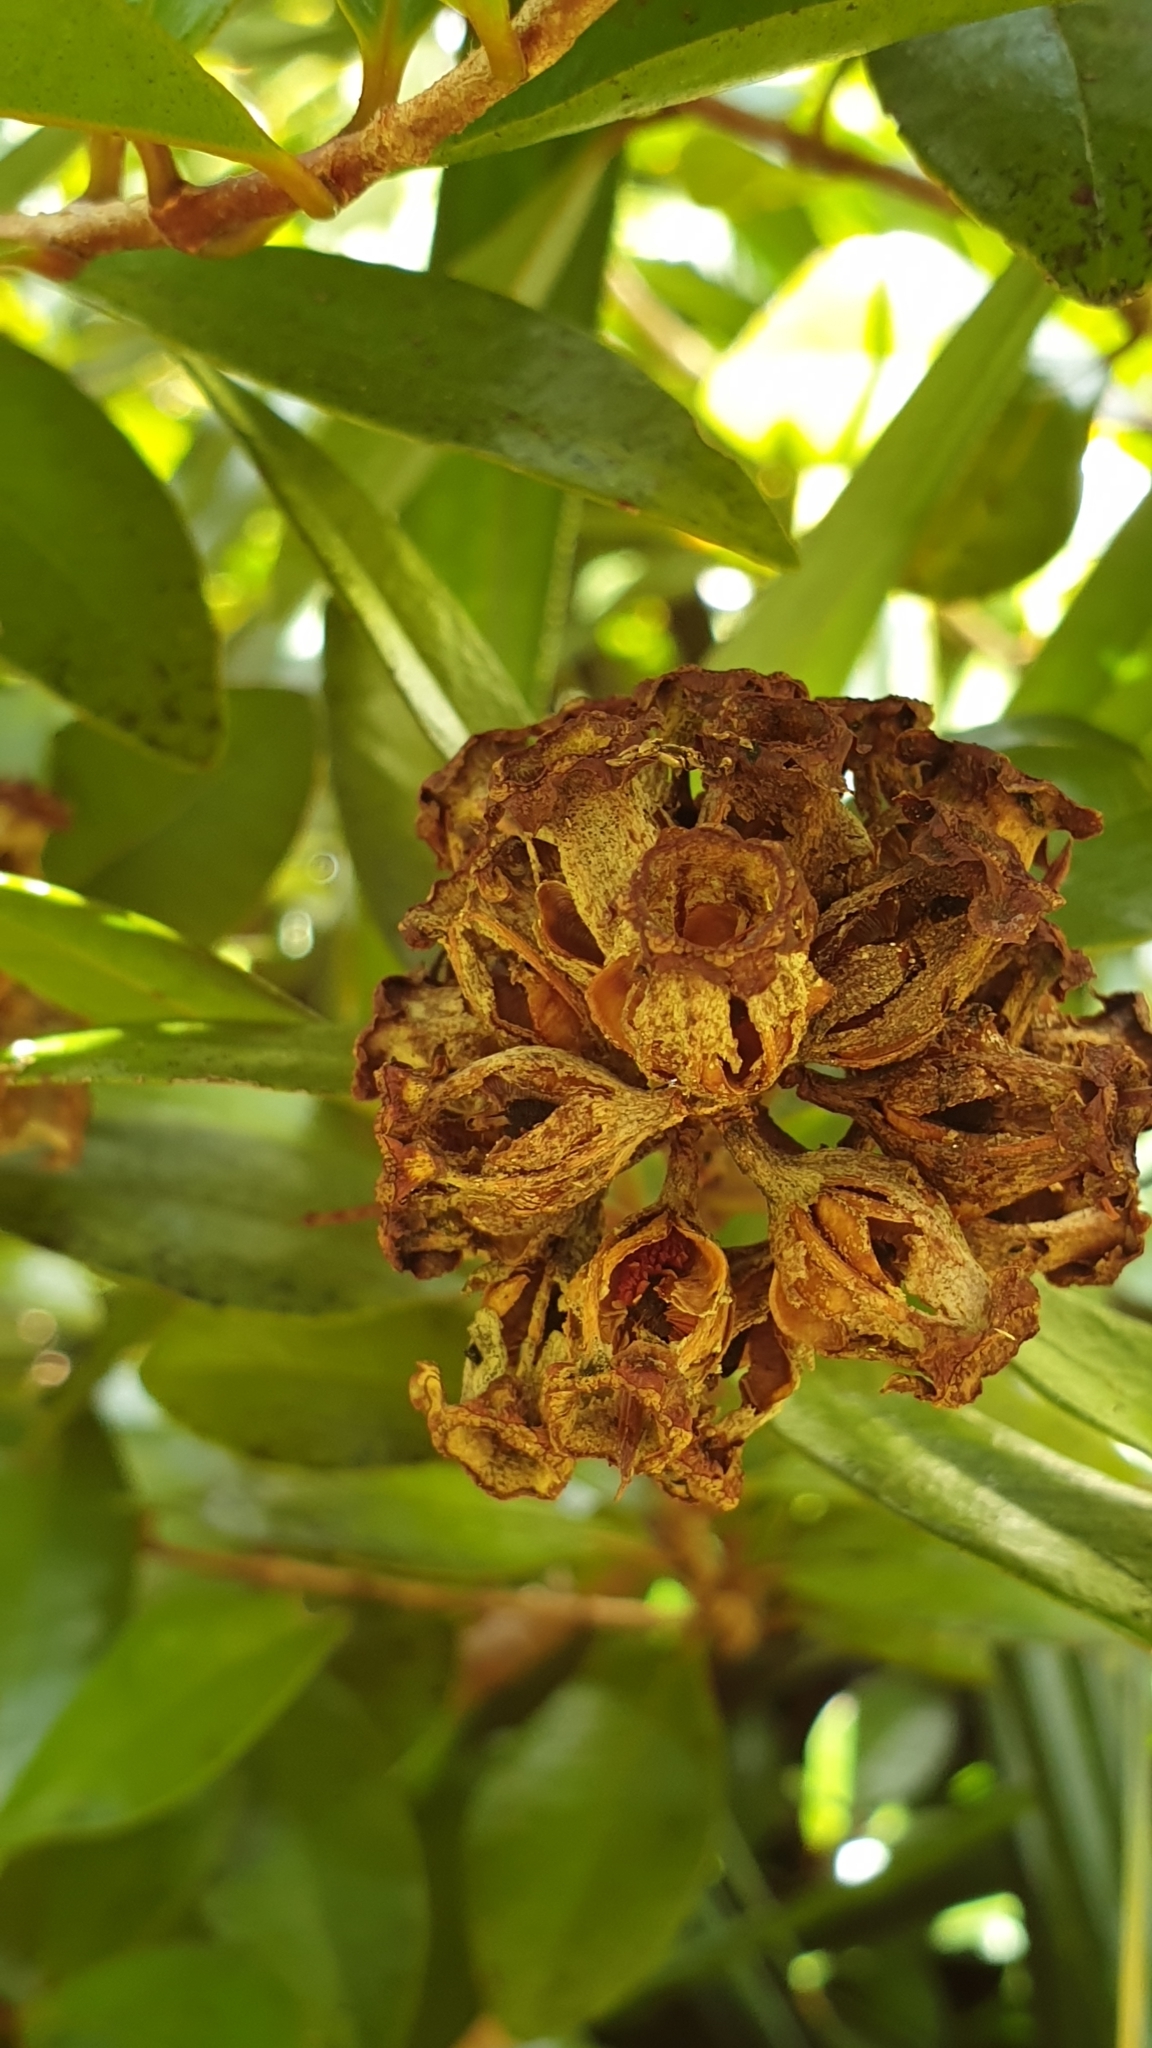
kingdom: Plantae
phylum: Tracheophyta
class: Magnoliopsida
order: Myrtales
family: Myrtaceae
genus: Metrosideros
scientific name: Metrosideros fulgens
